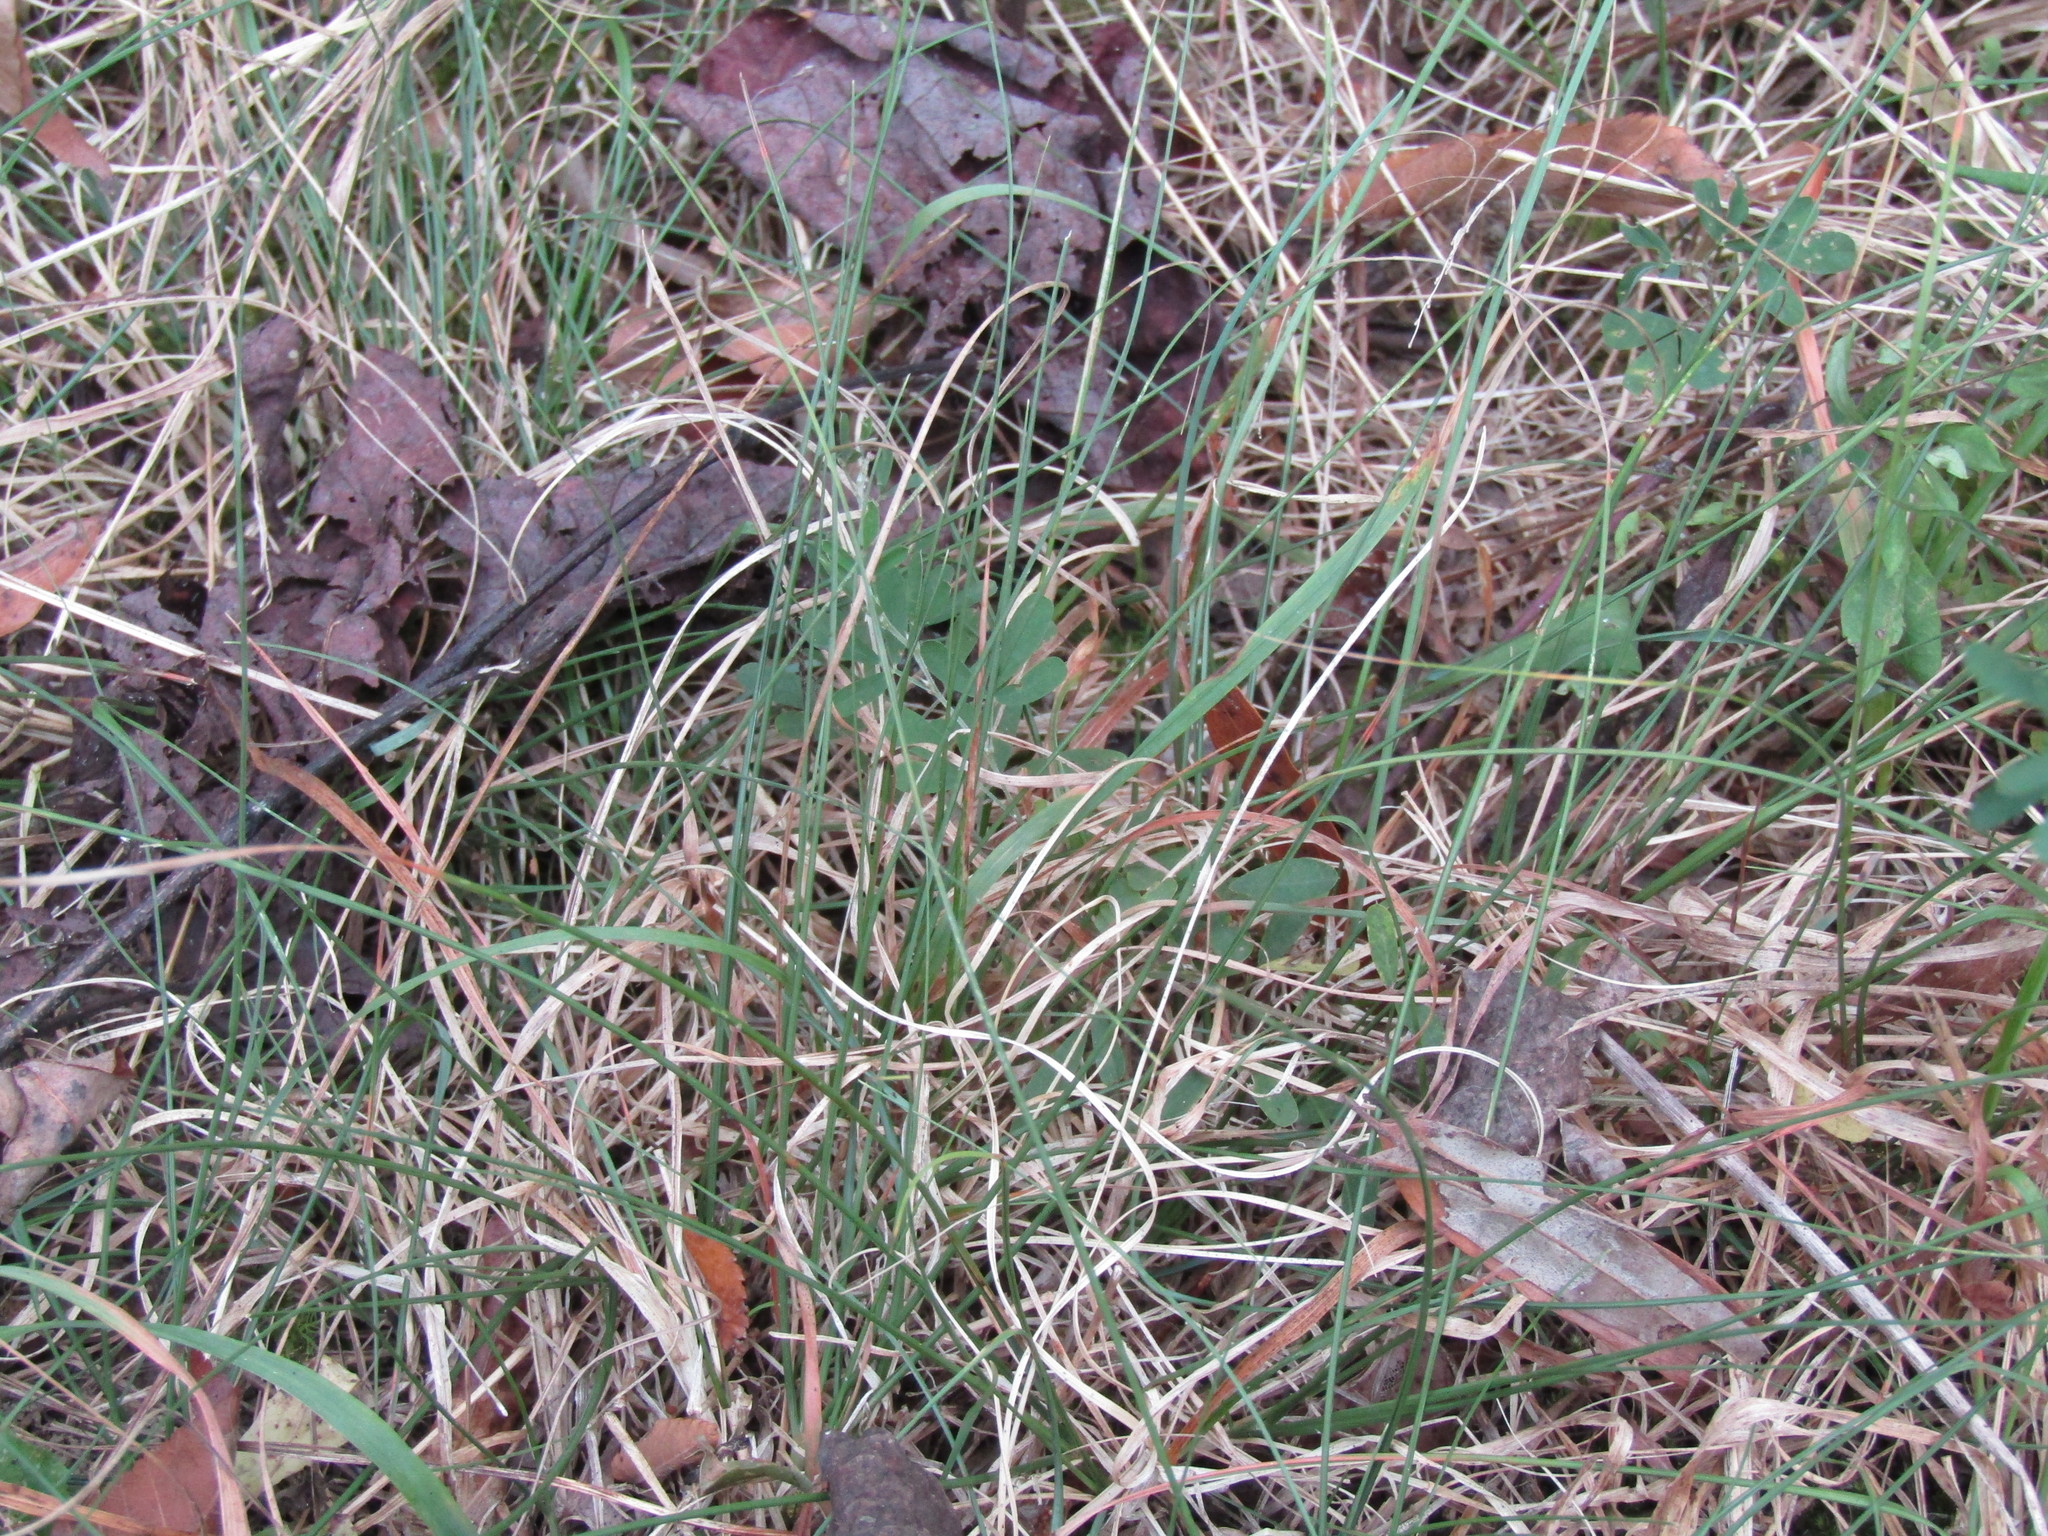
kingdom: Plantae
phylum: Tracheophyta
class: Liliopsida
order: Poales
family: Poaceae
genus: Danthonia
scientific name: Danthonia spicata
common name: Common wild oatgrass
